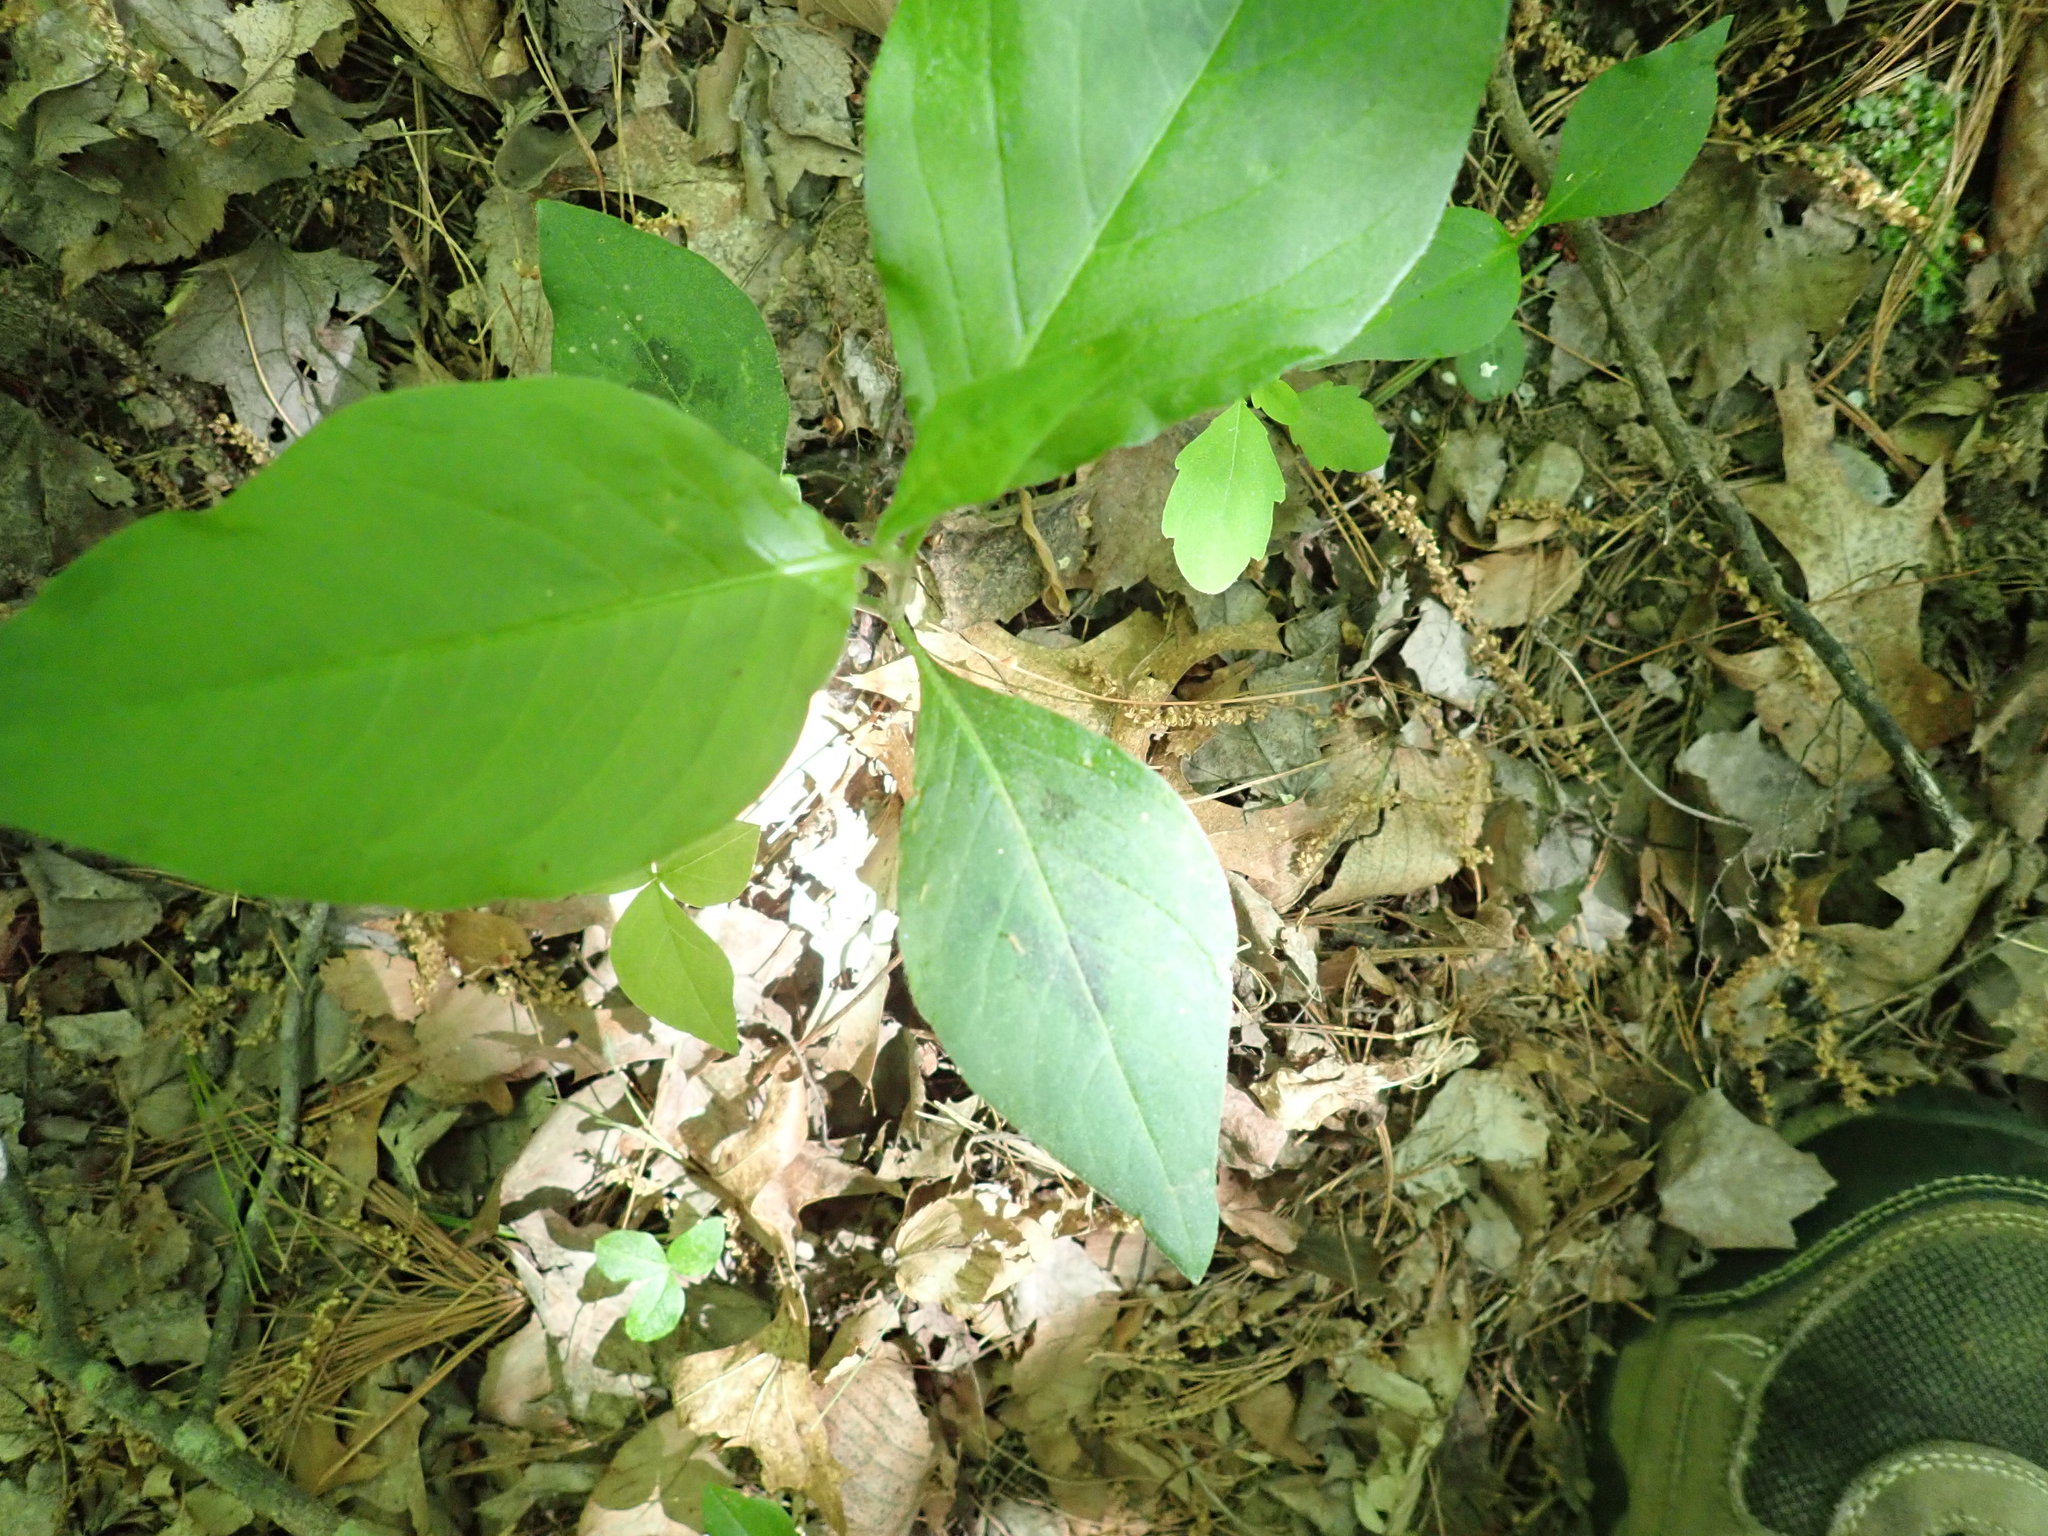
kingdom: Plantae
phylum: Tracheophyta
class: Magnoliopsida
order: Caryophyllales
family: Polygonaceae
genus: Persicaria
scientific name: Persicaria virginiana
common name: Jumpseed
